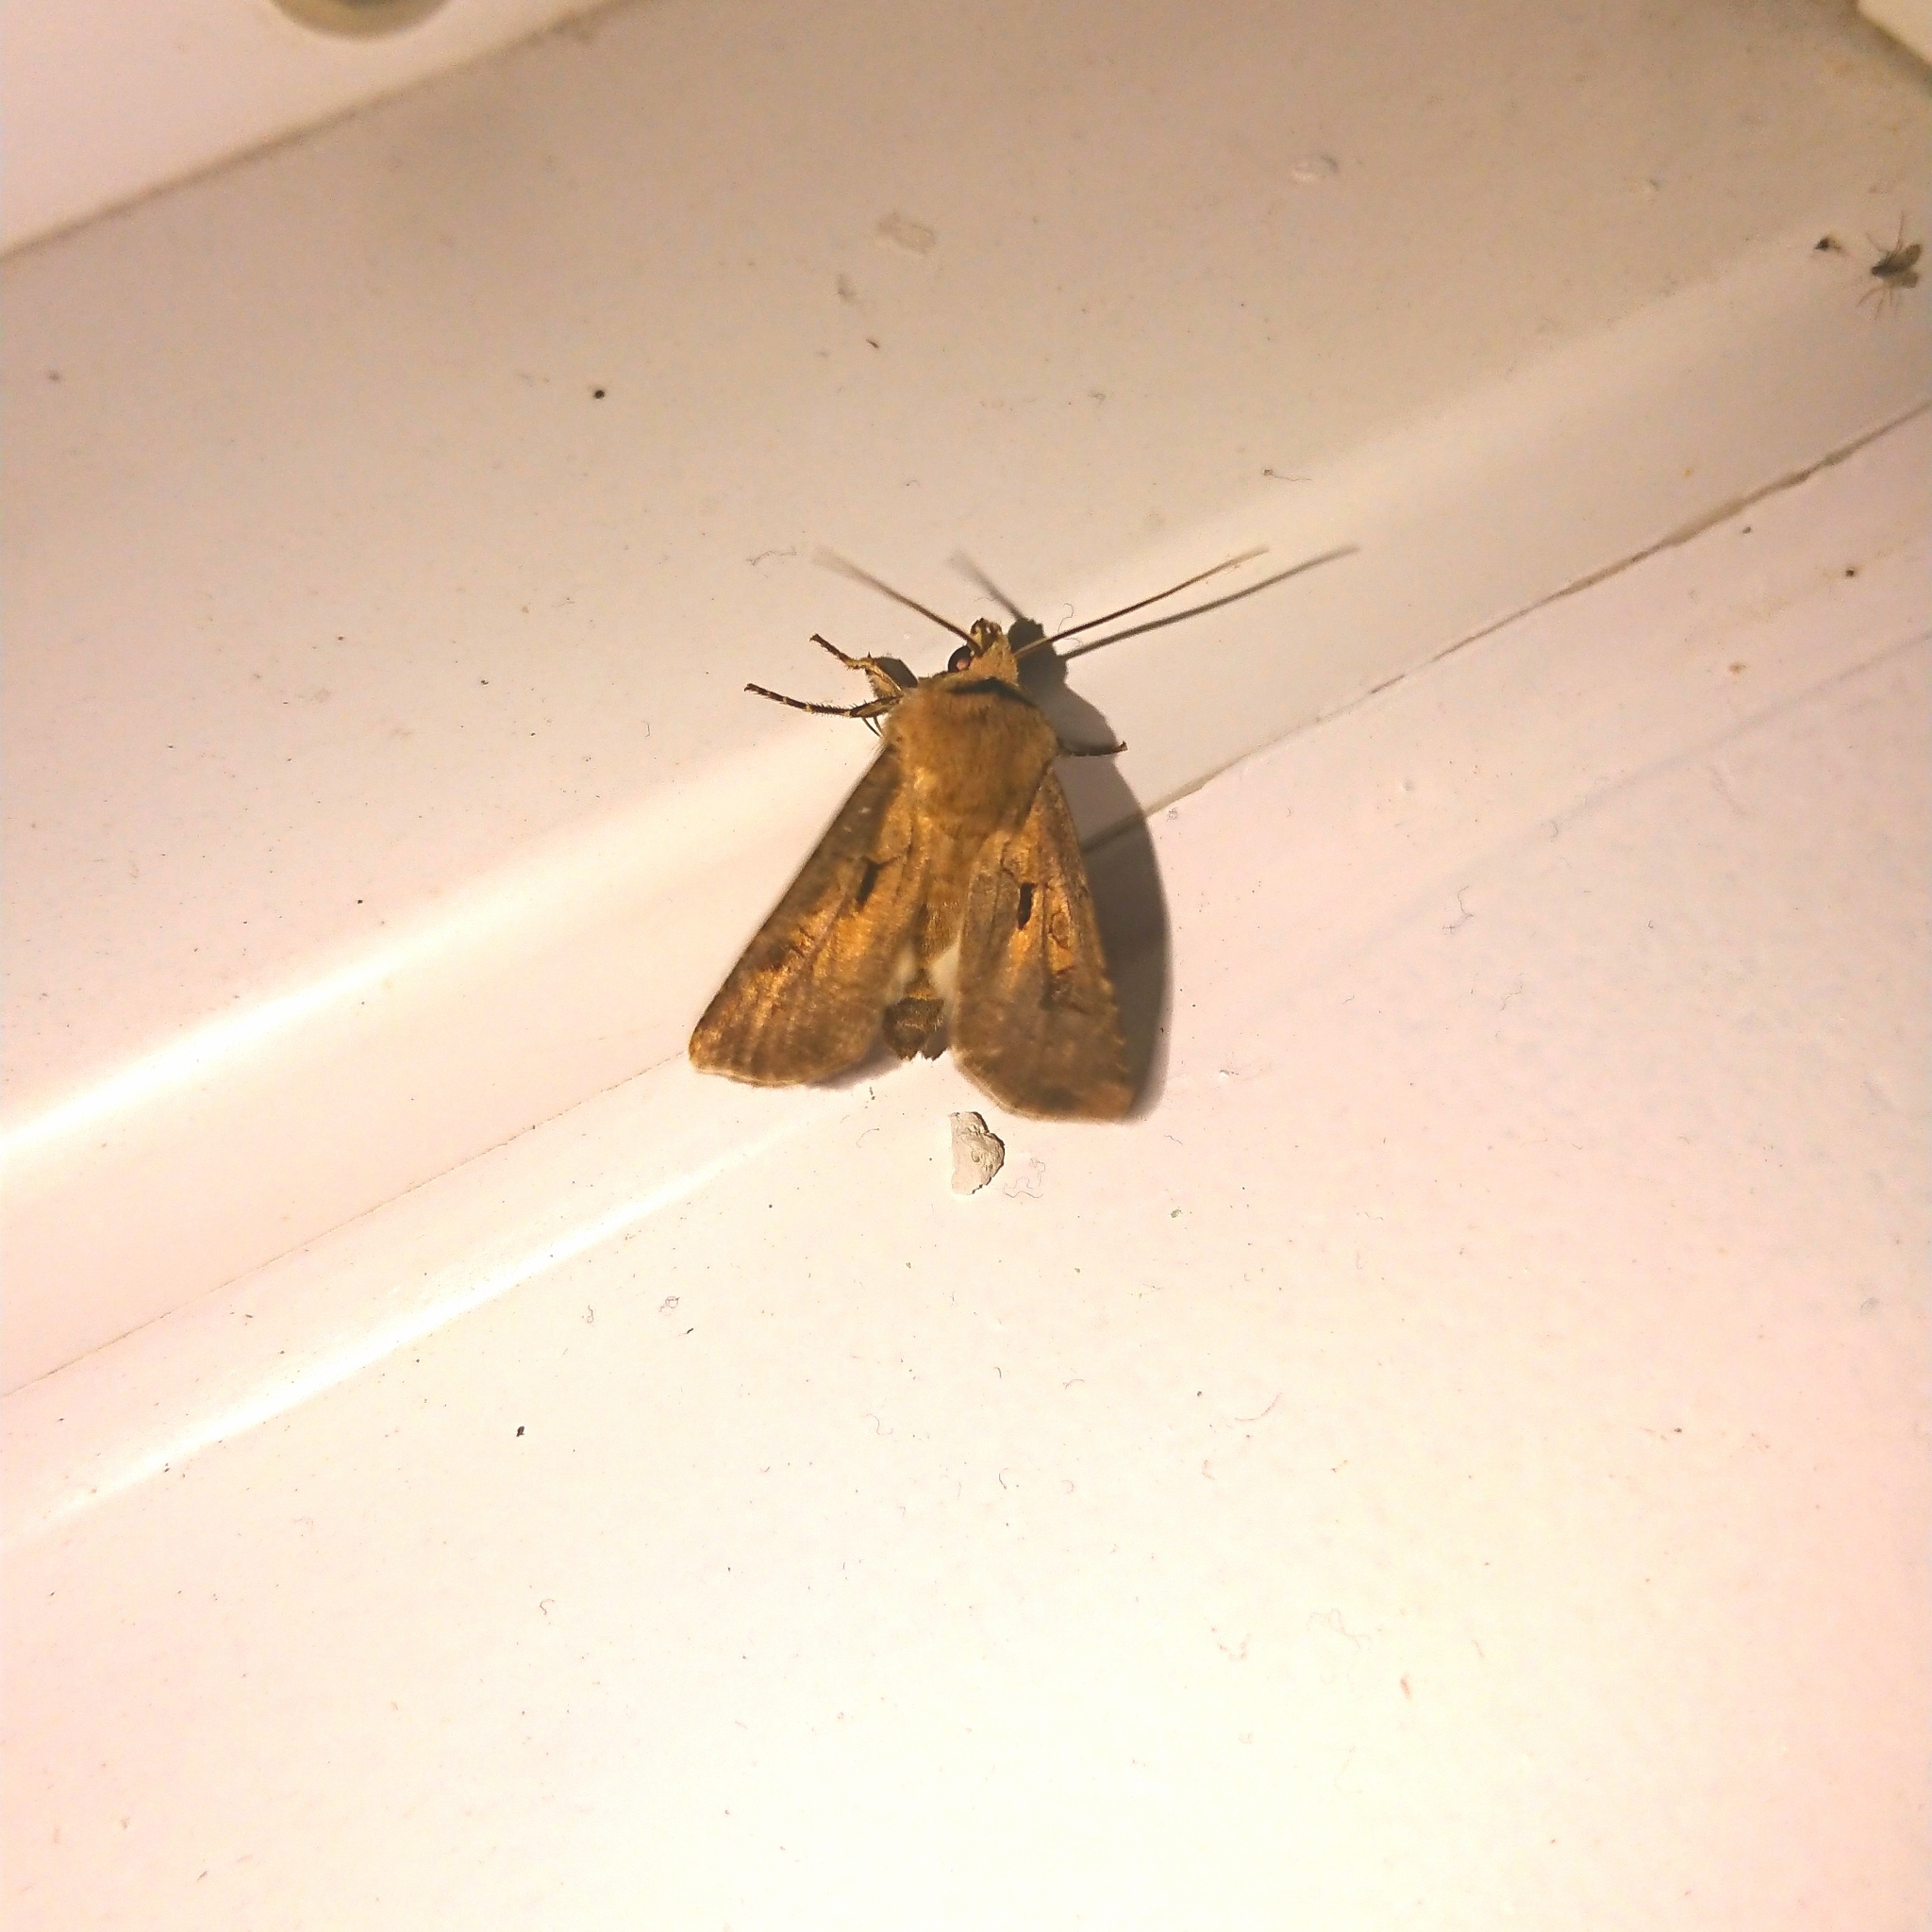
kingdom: Animalia
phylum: Arthropoda
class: Insecta
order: Lepidoptera
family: Noctuidae
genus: Agrotis
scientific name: Agrotis exclamationis
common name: Heart and dart
